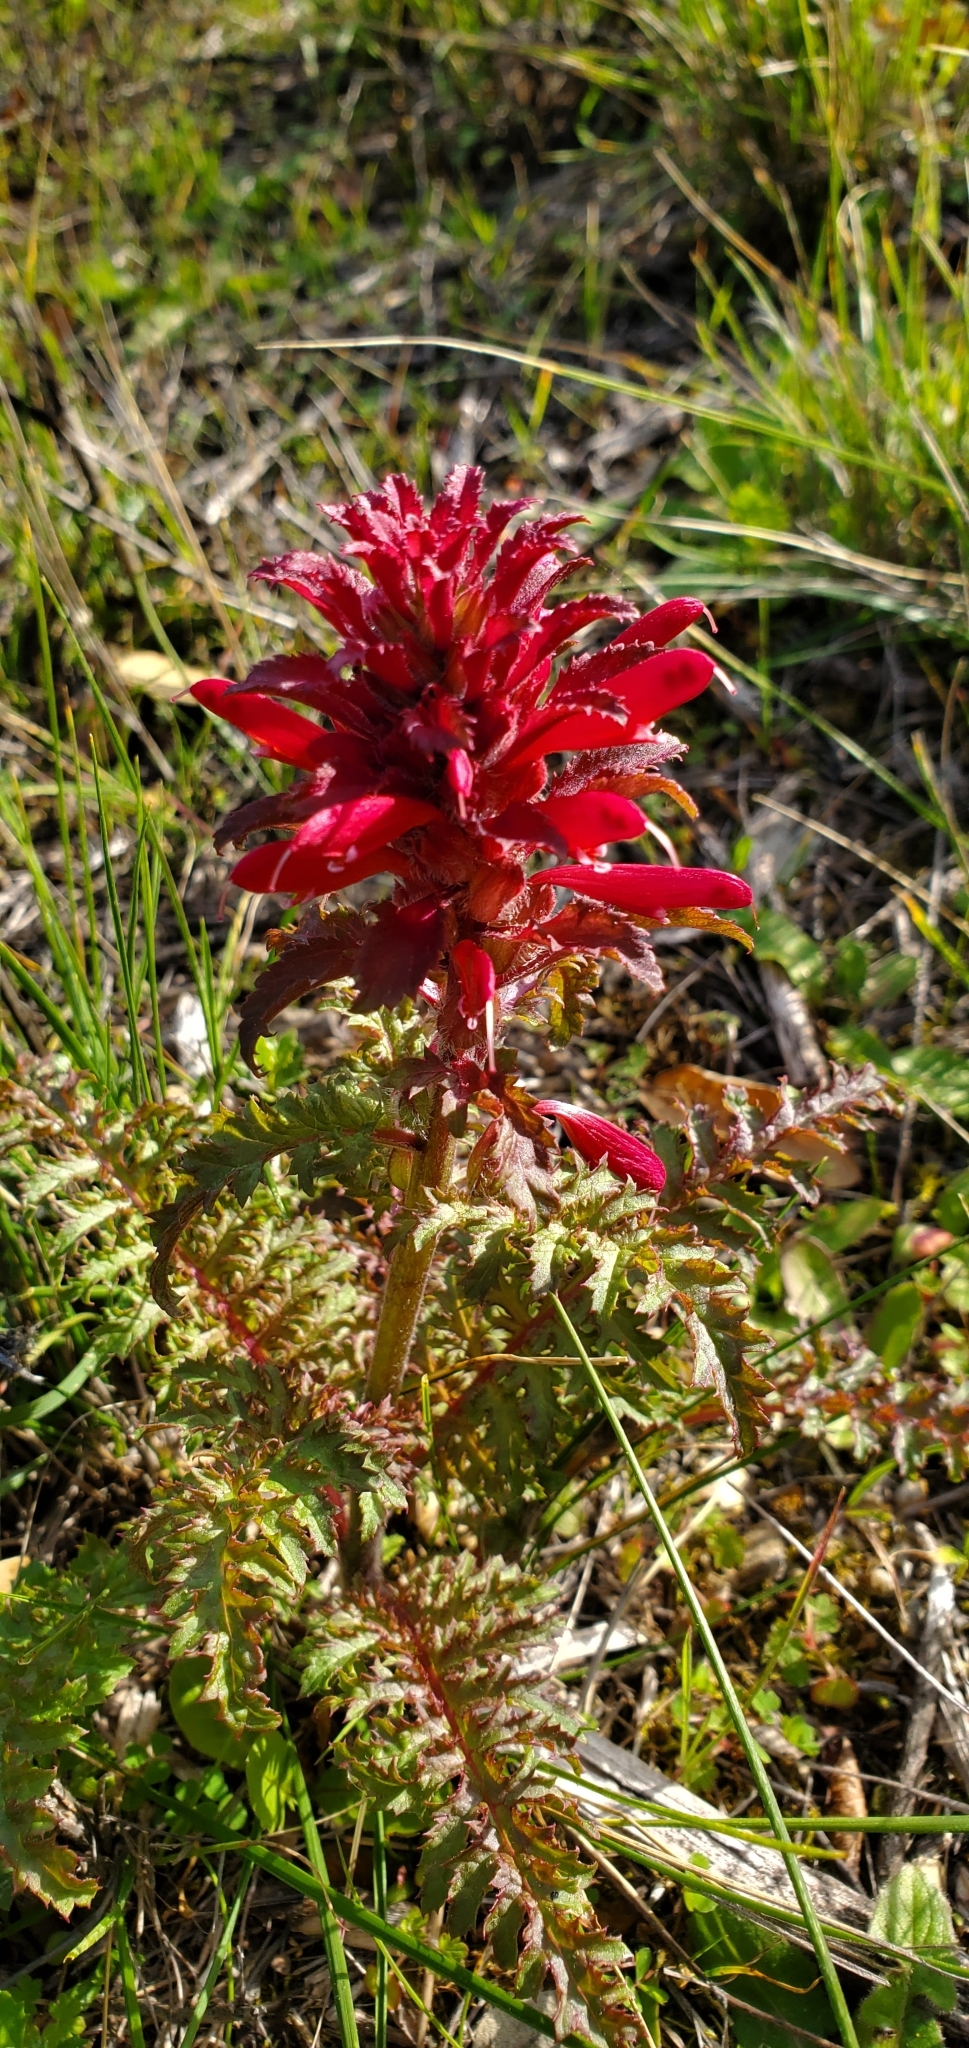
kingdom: Plantae
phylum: Tracheophyta
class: Magnoliopsida
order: Lamiales
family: Orobanchaceae
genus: Pedicularis
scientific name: Pedicularis densiflora
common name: Indian warrior
